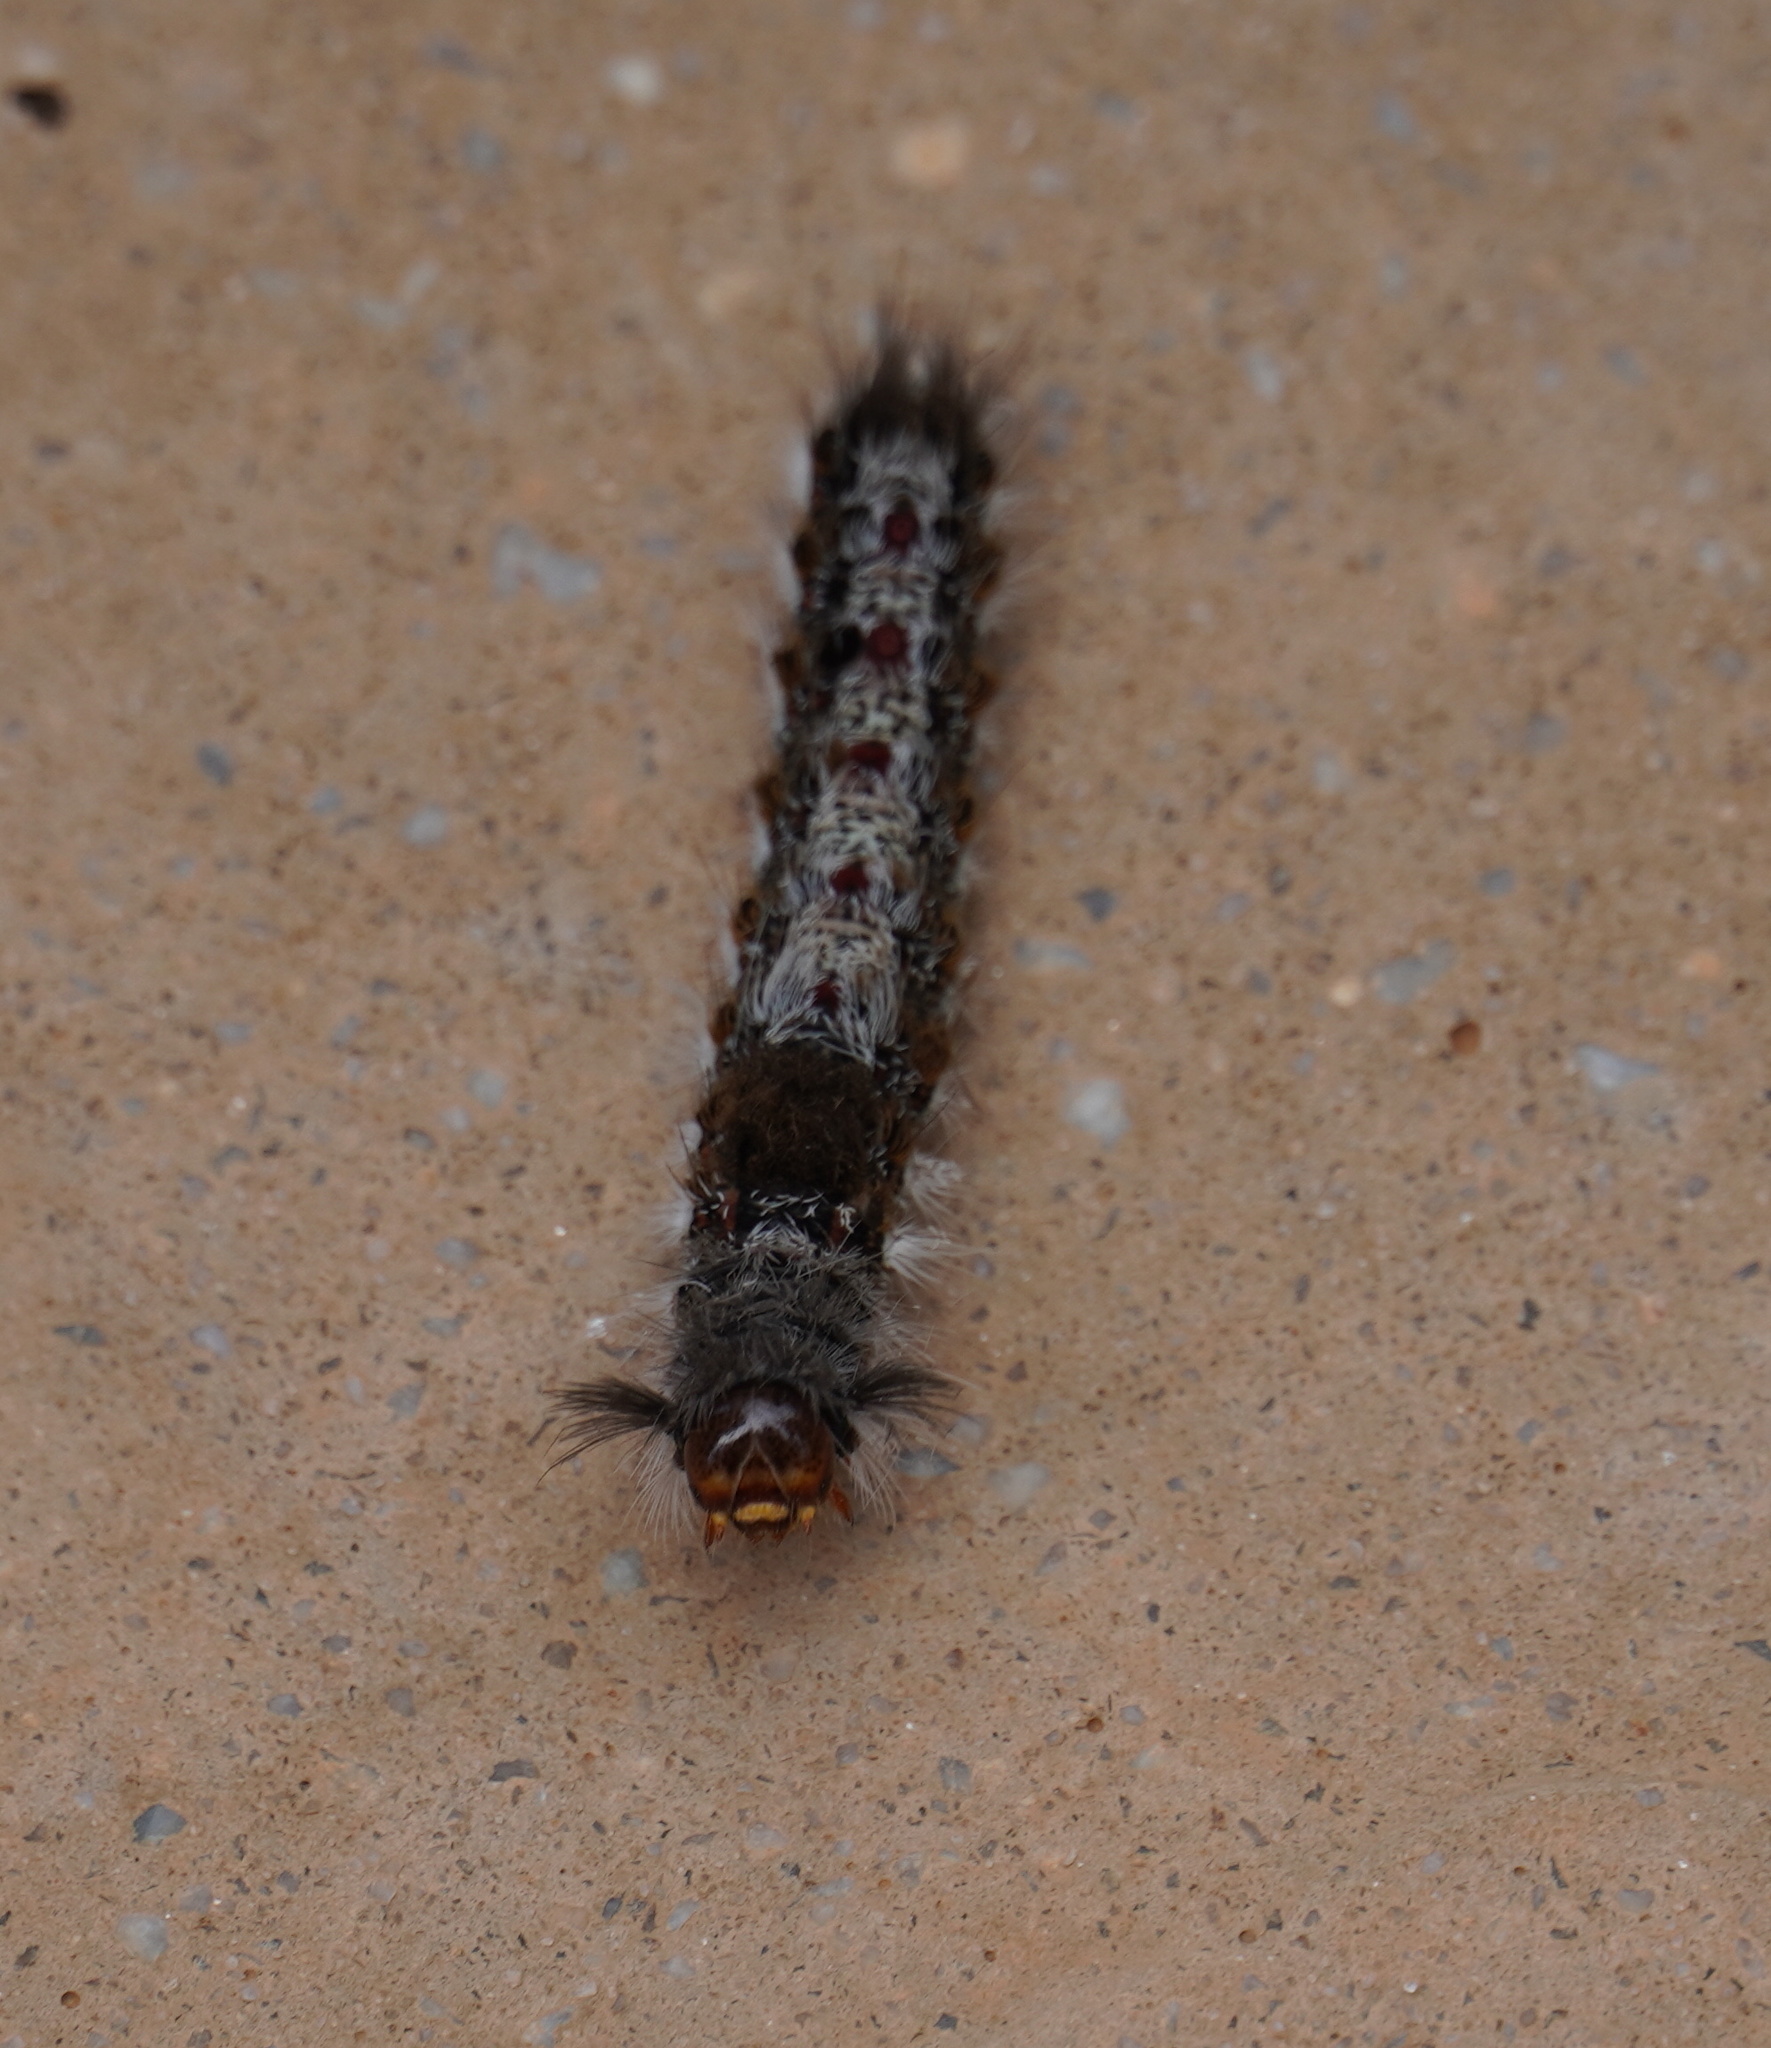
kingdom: Animalia
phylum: Arthropoda
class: Insecta
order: Lepidoptera
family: Erebidae
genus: Euproctis
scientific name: Euproctis Knappetra fasciata
